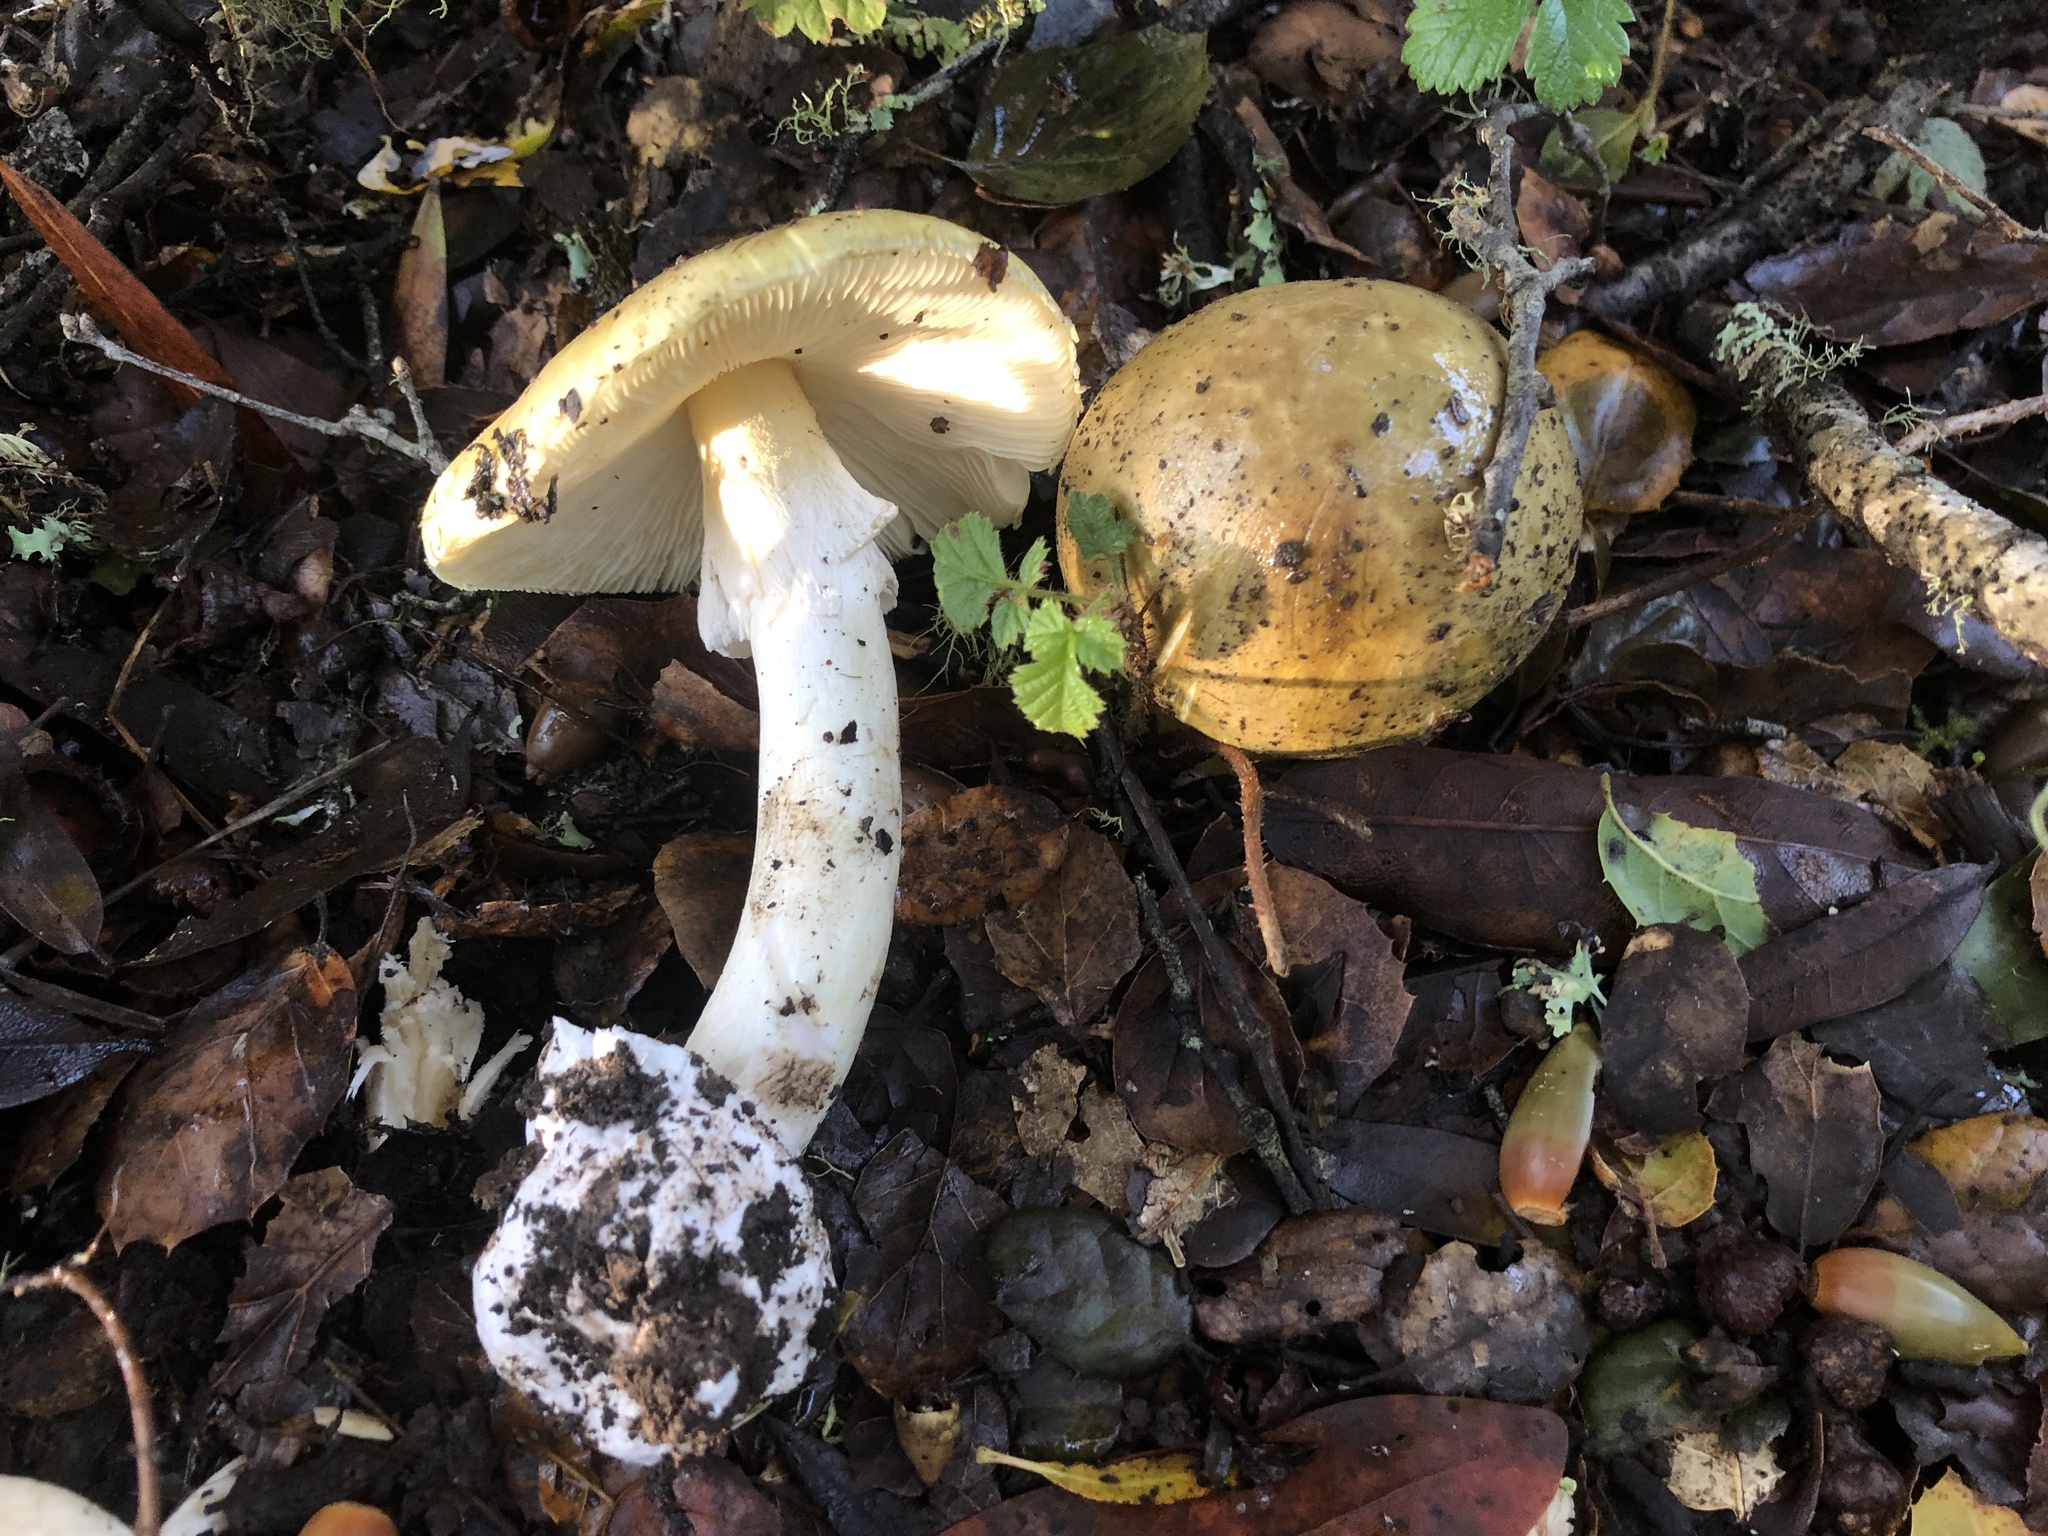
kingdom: Fungi
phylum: Basidiomycota
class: Agaricomycetes
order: Agaricales
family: Amanitaceae
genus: Amanita
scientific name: Amanita phalloides
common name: Death cap
